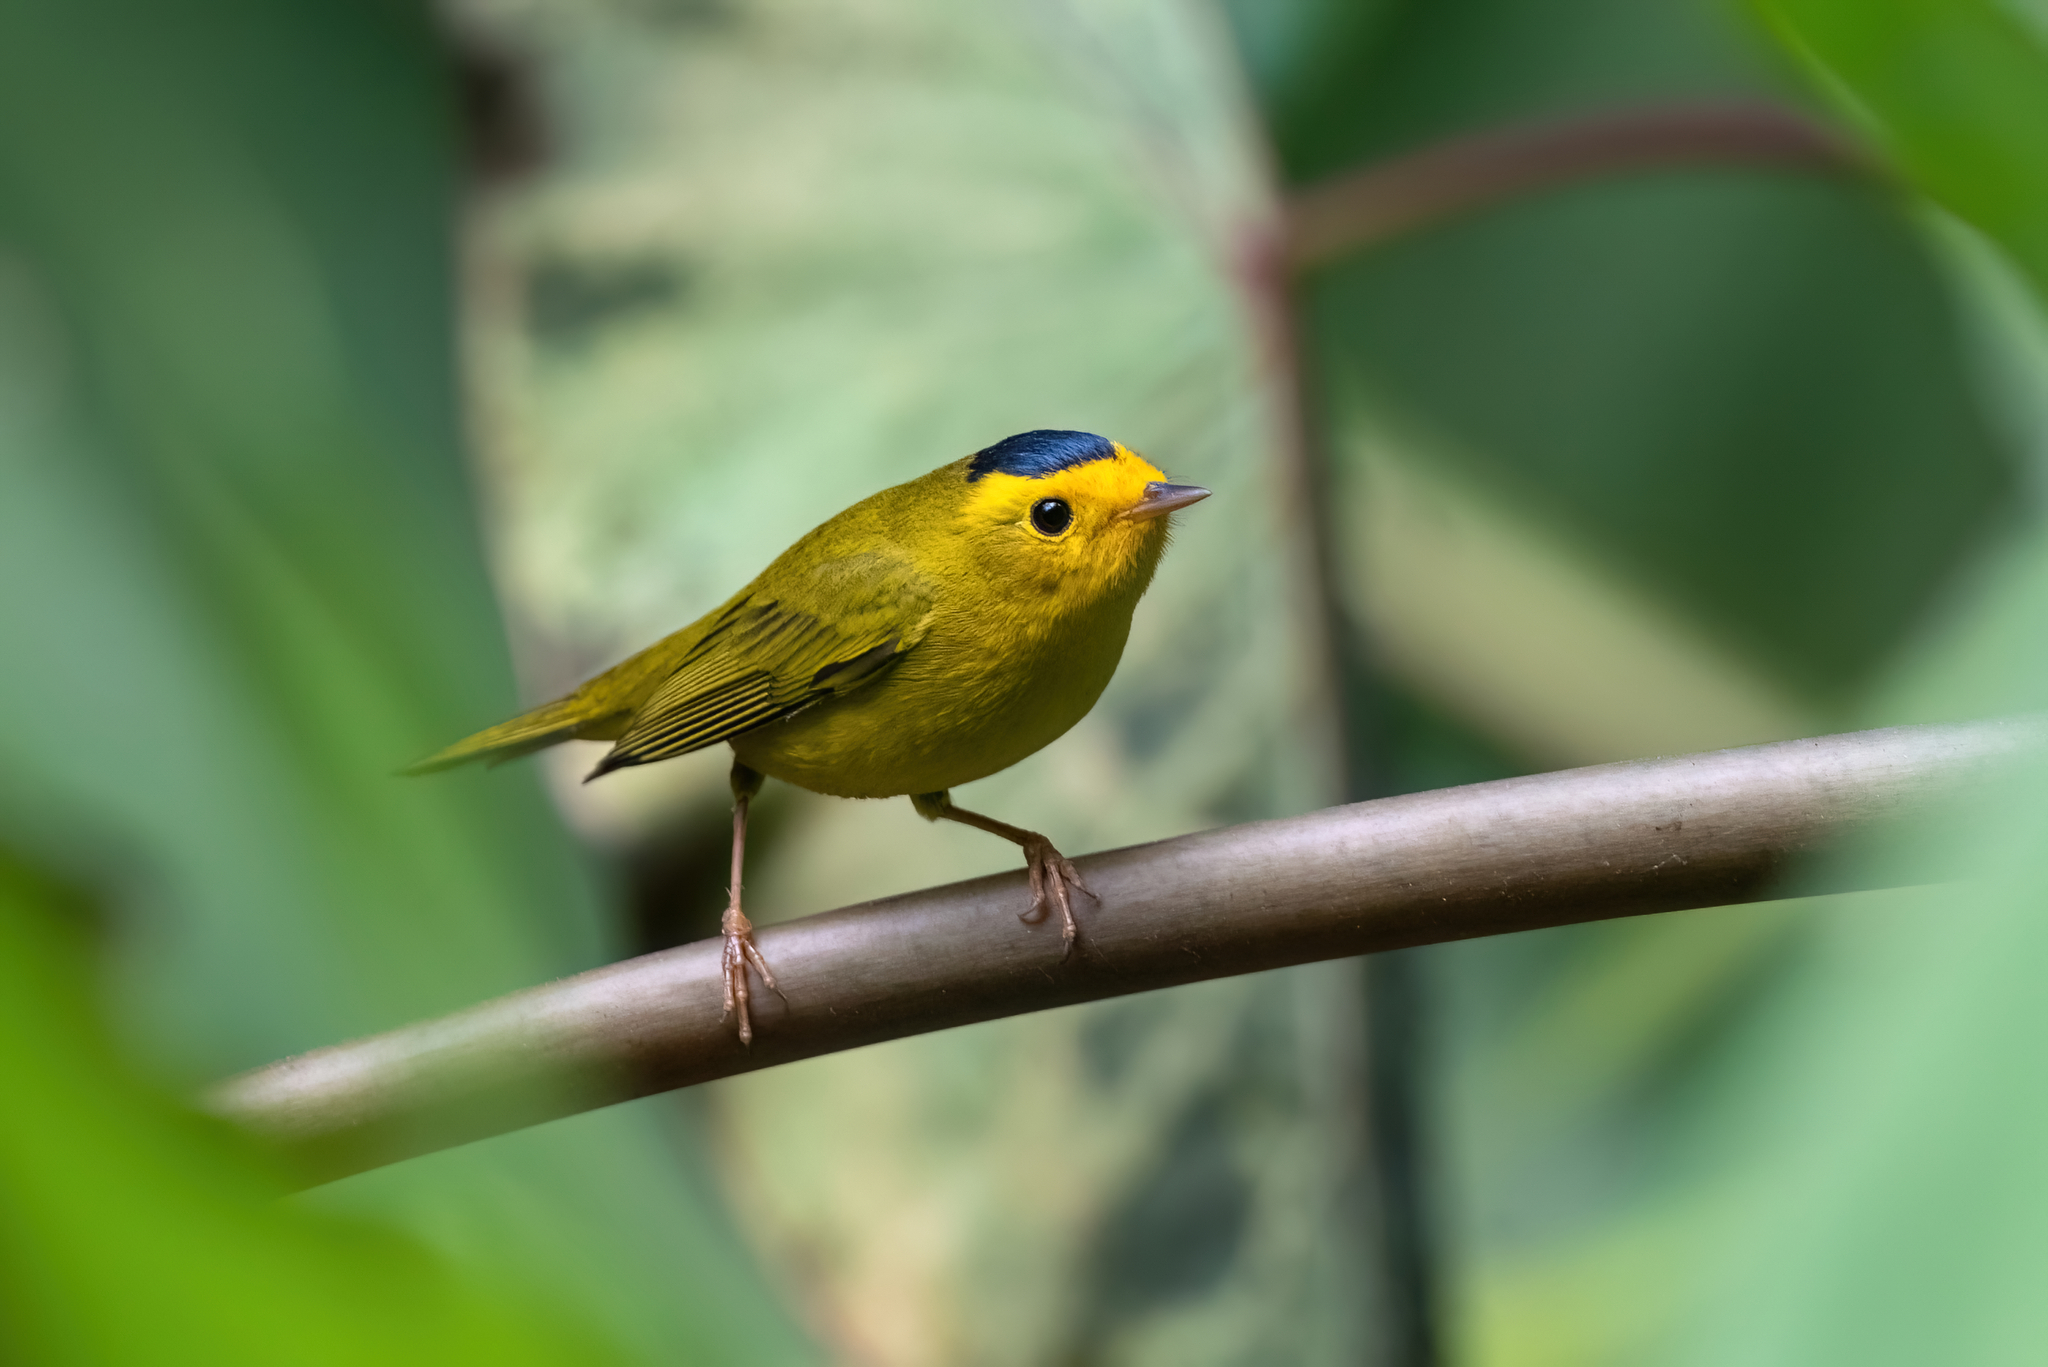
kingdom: Animalia
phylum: Chordata
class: Aves
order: Passeriformes
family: Parulidae
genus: Cardellina
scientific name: Cardellina pusilla
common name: Wilson's warbler
